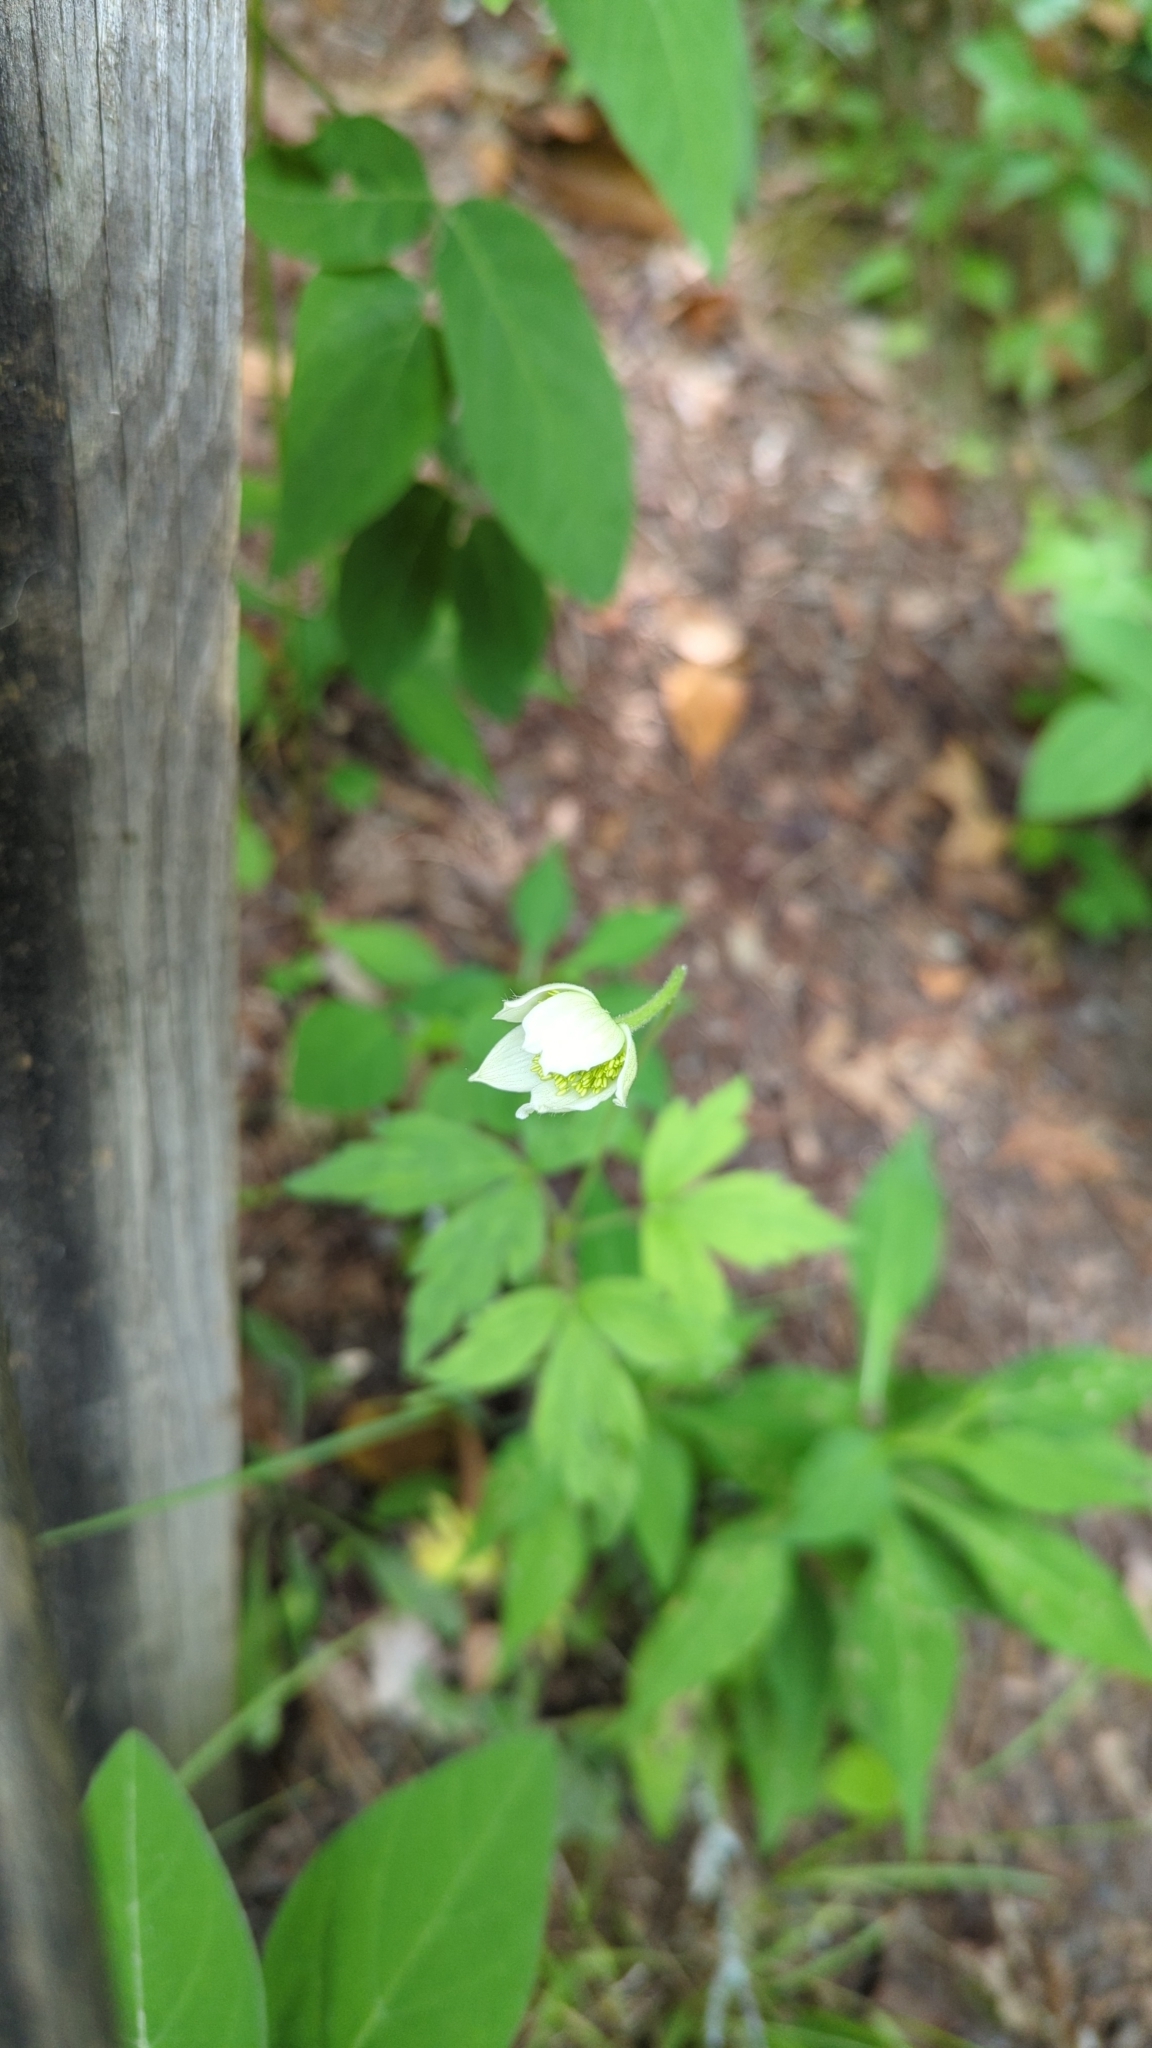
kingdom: Plantae
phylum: Tracheophyta
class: Magnoliopsida
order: Ranunculales
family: Ranunculaceae
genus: Anemone
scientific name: Anemone virginiana
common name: Tall anemone
